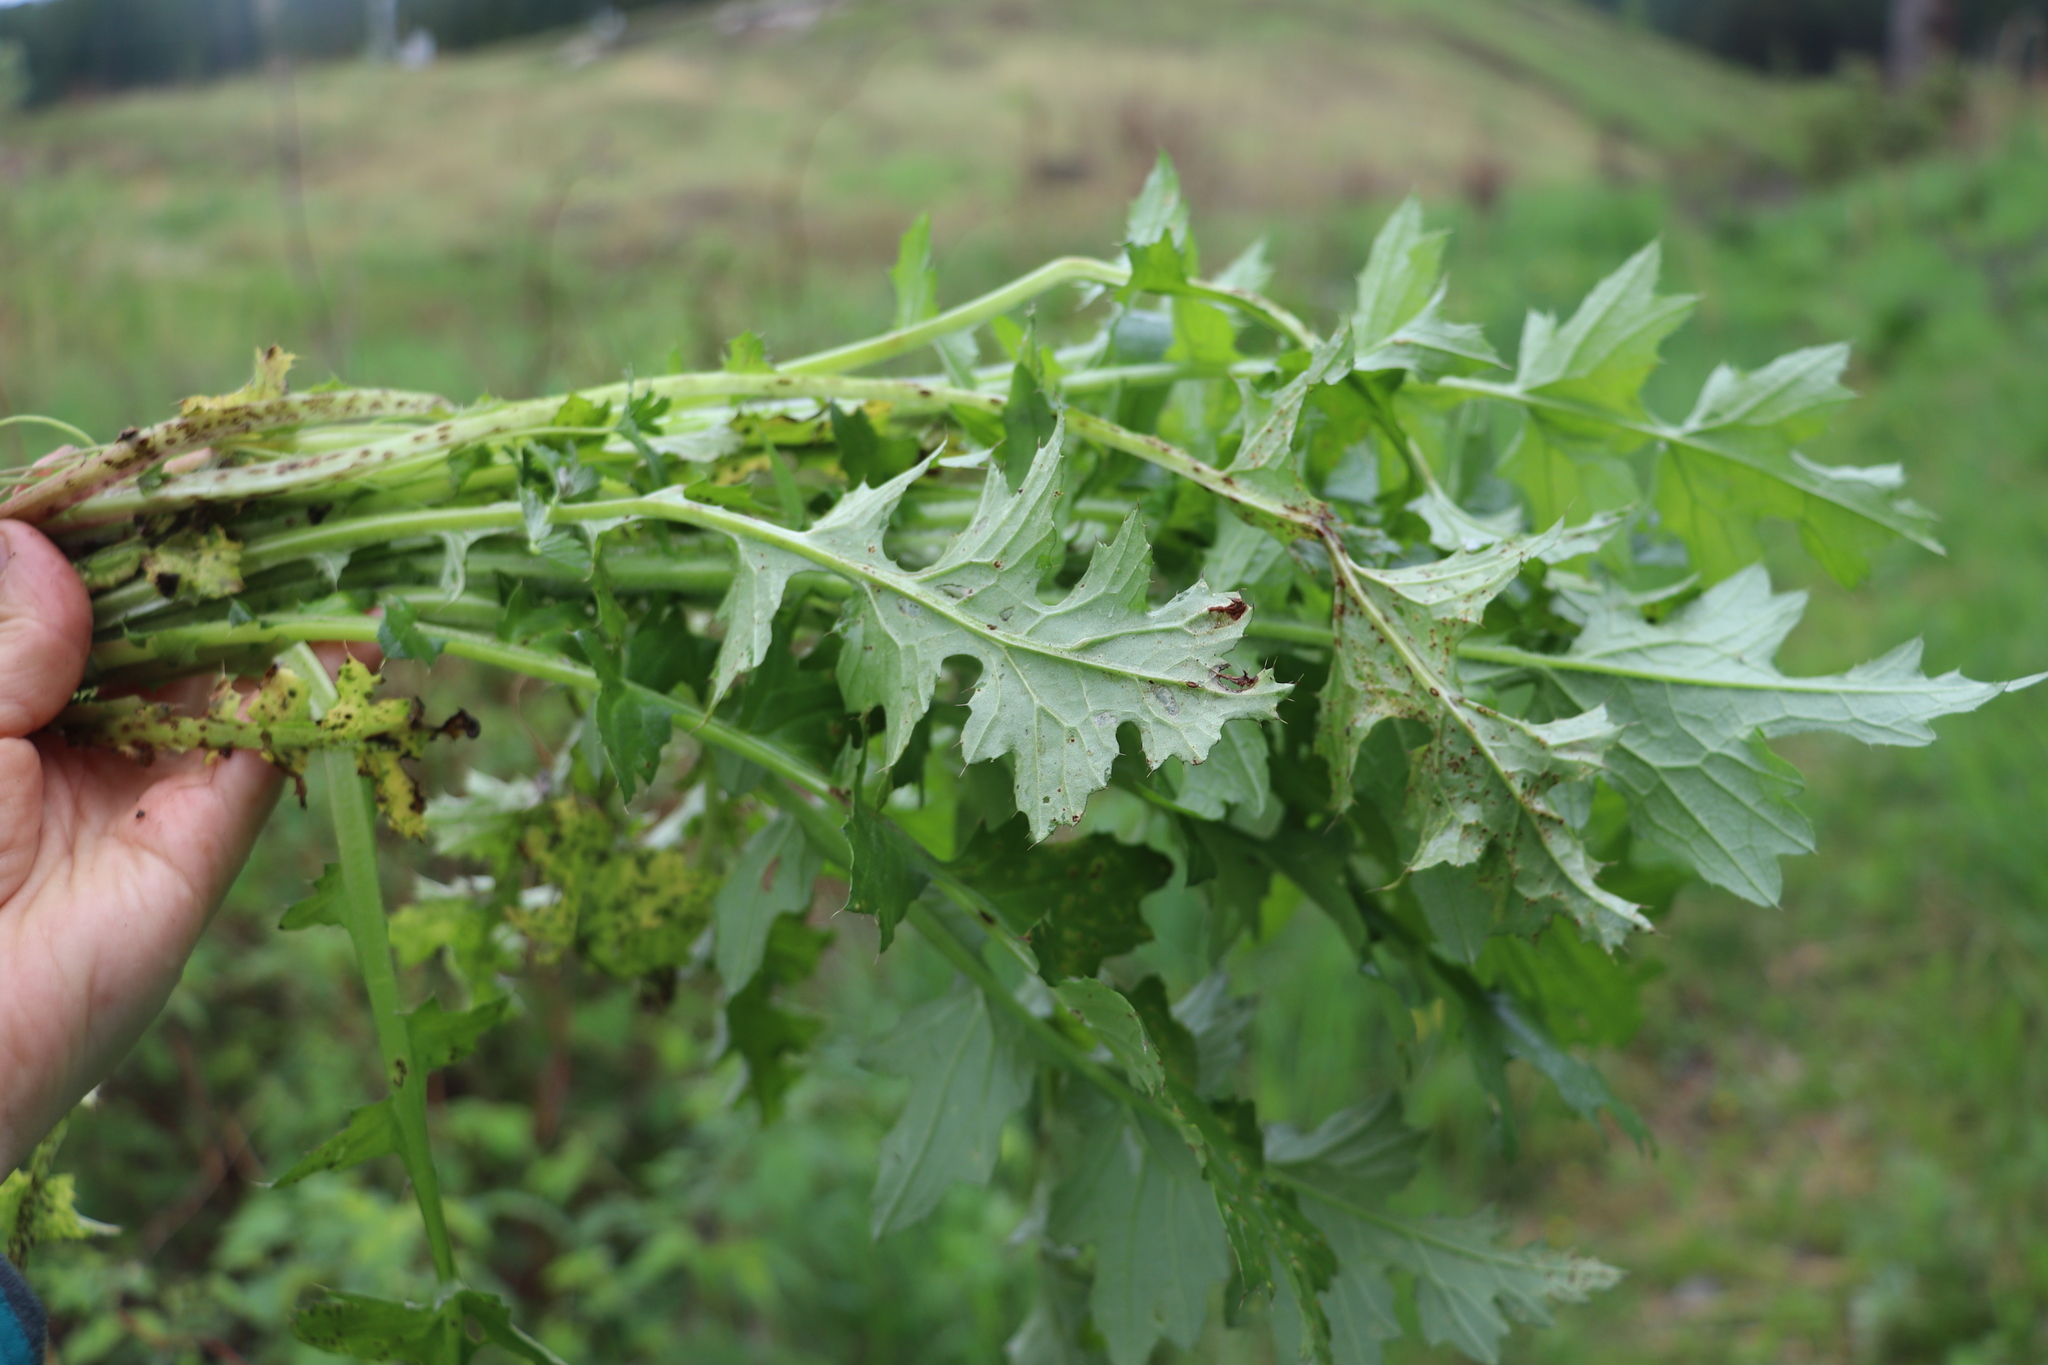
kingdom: Plantae
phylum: Tracheophyta
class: Magnoliopsida
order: Asterales
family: Asteraceae
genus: Carduus
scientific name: Carduus crispus
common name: Welted thistle
